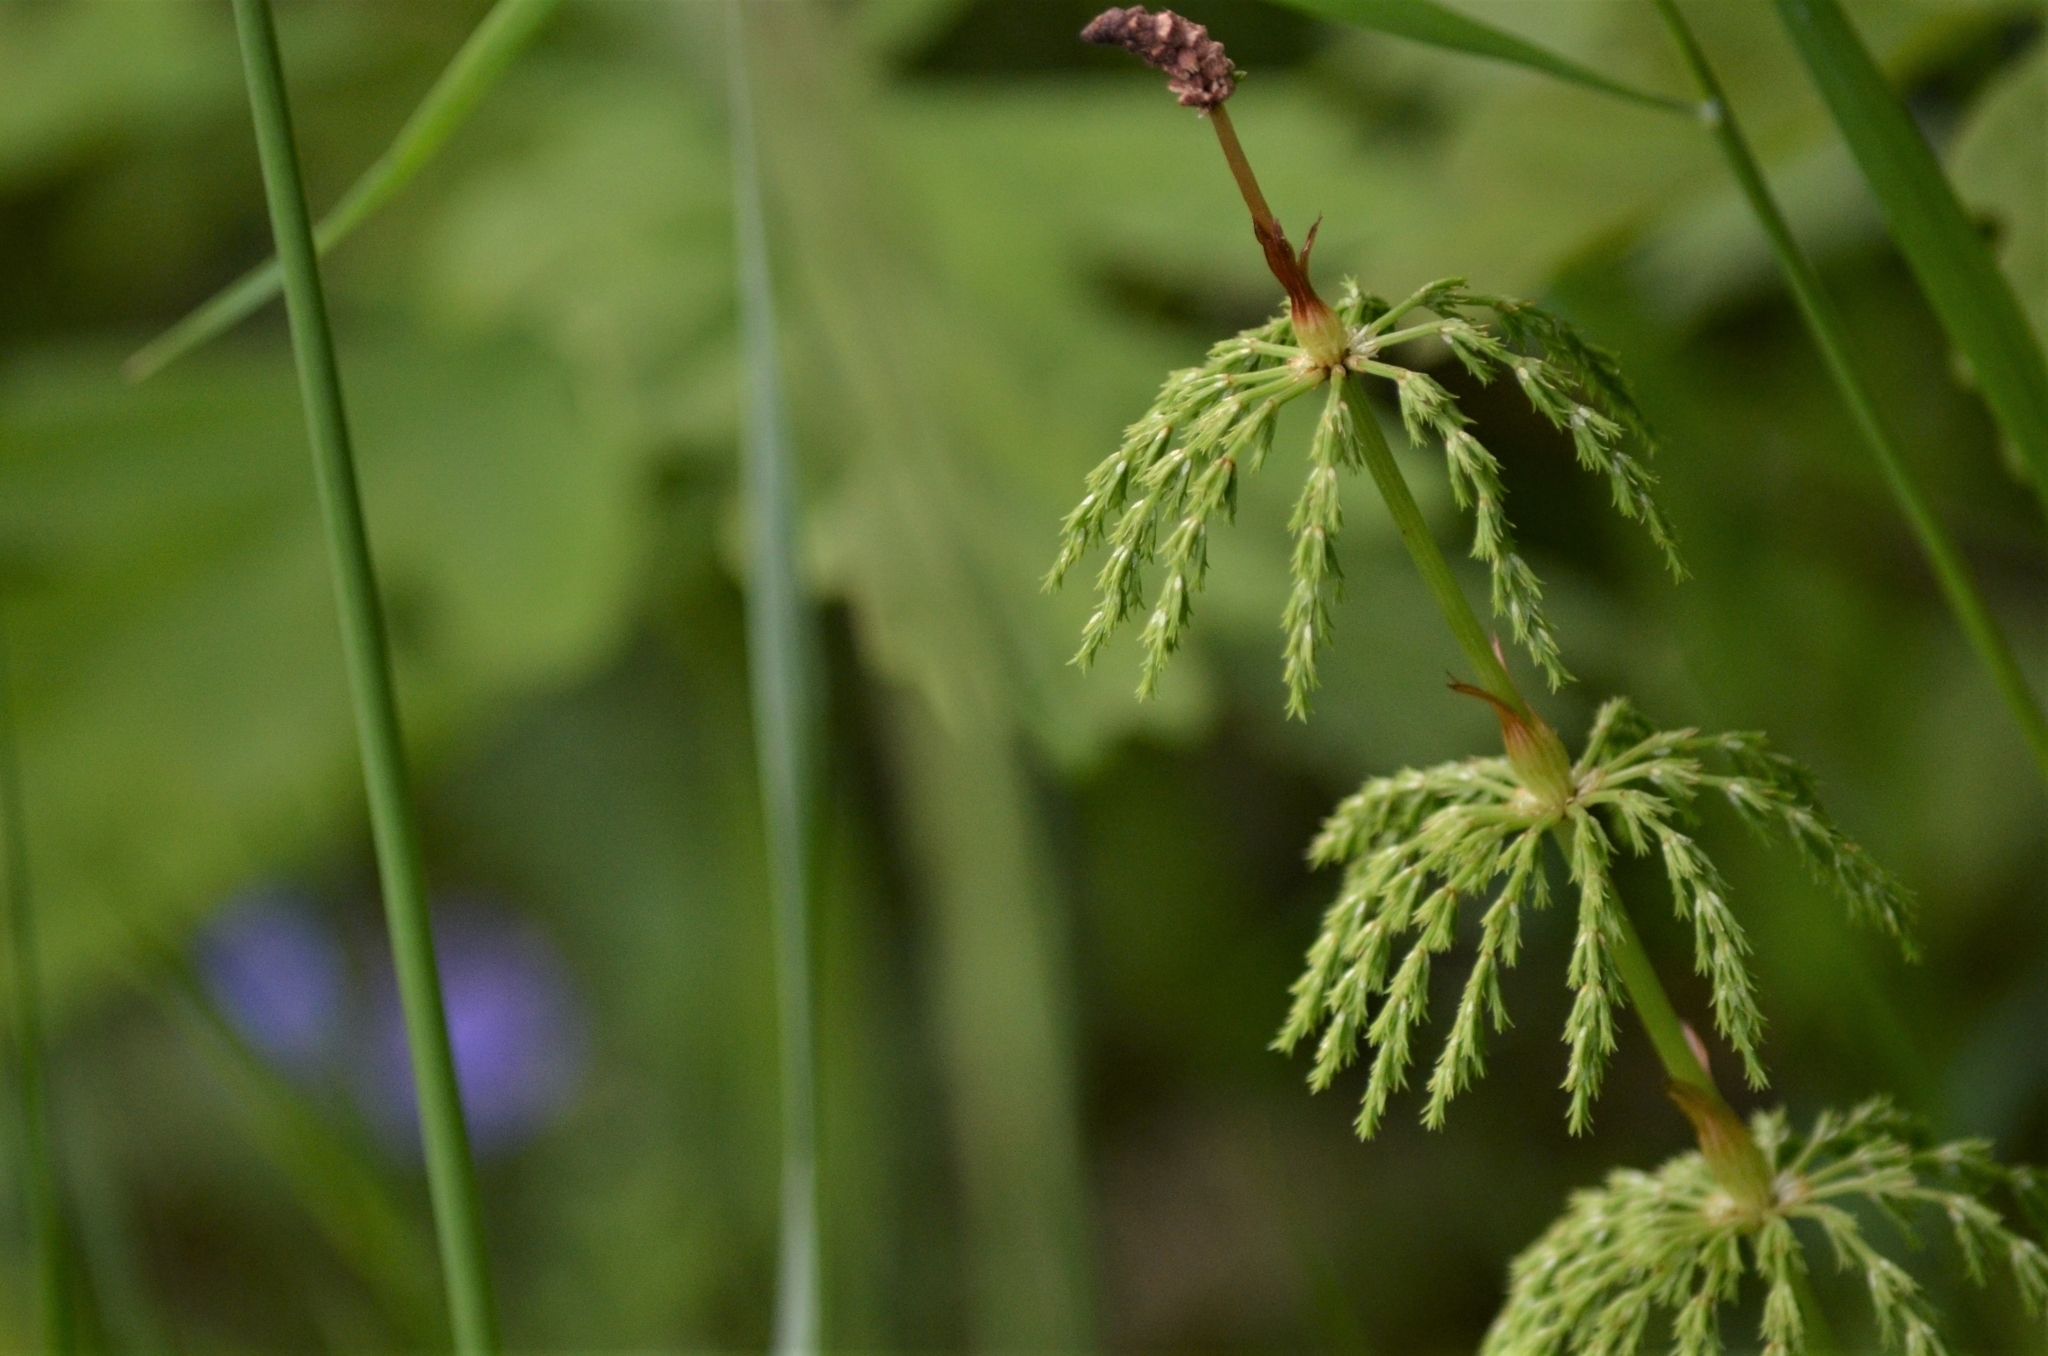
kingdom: Plantae
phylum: Tracheophyta
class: Polypodiopsida
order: Equisetales
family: Equisetaceae
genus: Equisetum
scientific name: Equisetum sylvaticum
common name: Wood horsetail
